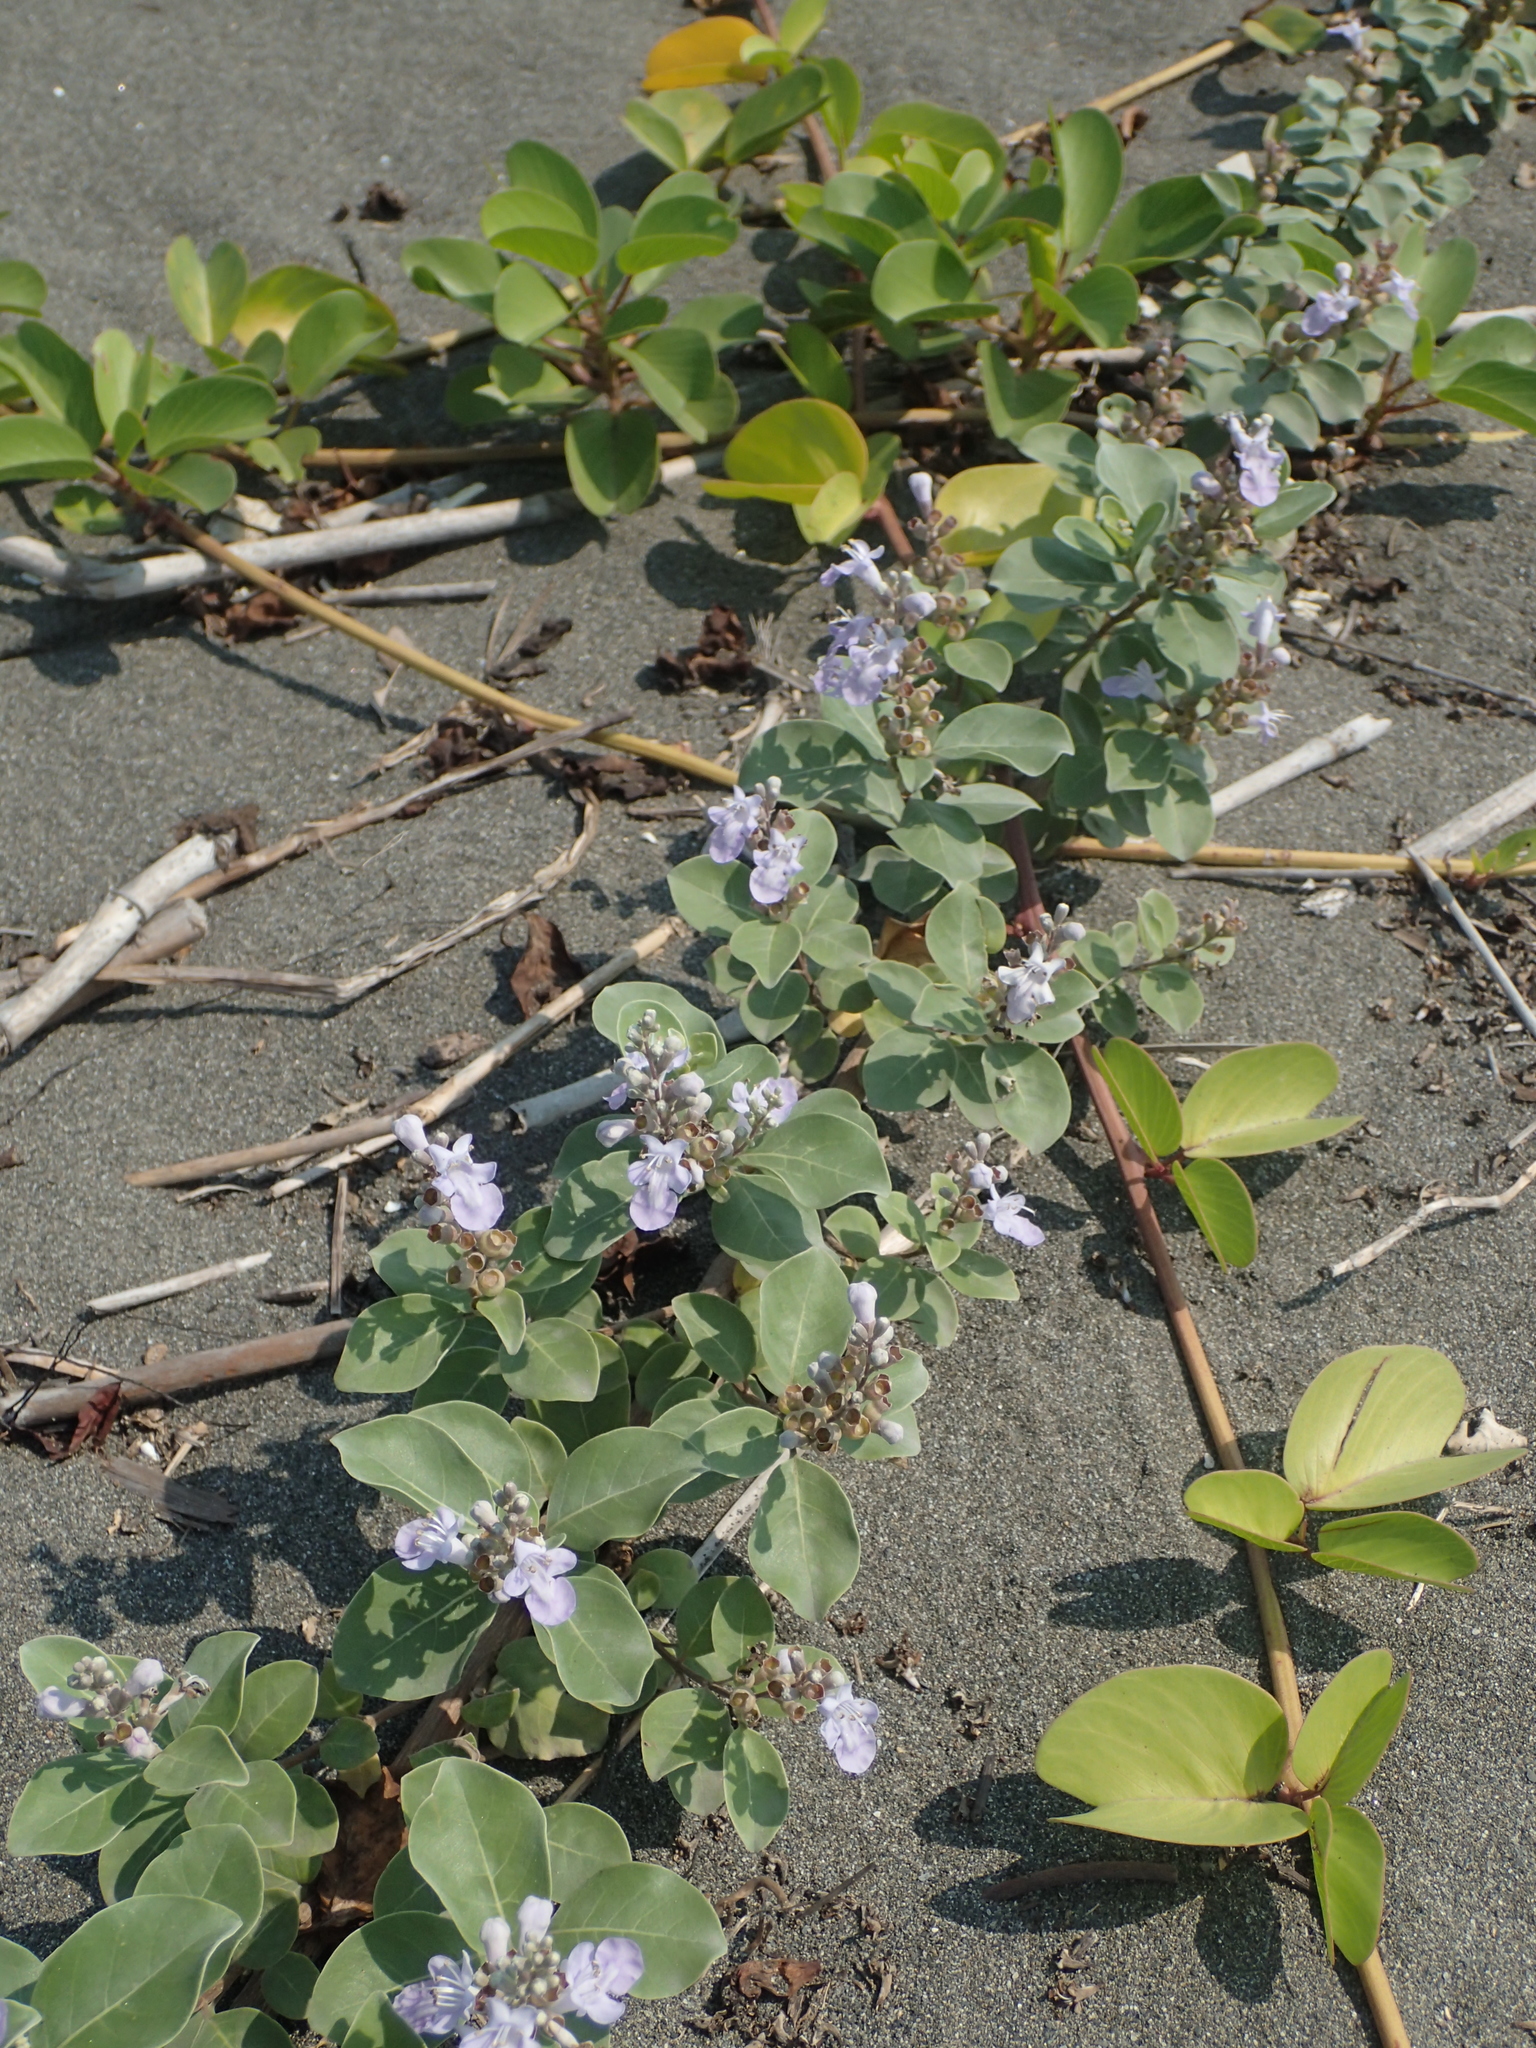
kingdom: Plantae
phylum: Tracheophyta
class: Magnoliopsida
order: Lamiales
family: Lamiaceae
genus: Vitex
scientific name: Vitex rotundifolia
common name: Beach vitex
